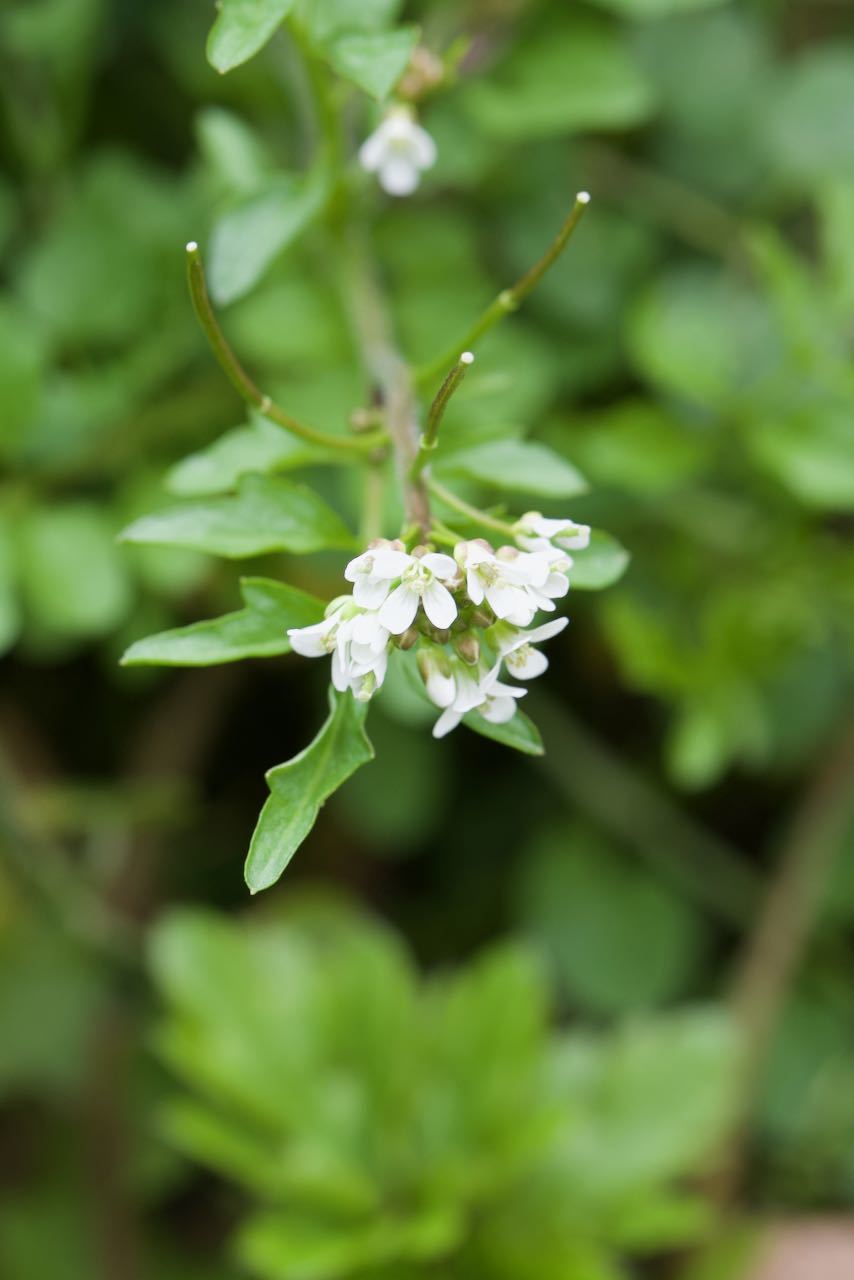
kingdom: Plantae
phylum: Tracheophyta
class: Magnoliopsida
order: Brassicales
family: Brassicaceae
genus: Cardamine
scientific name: Cardamine flexuosa
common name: Woodland bittercress
